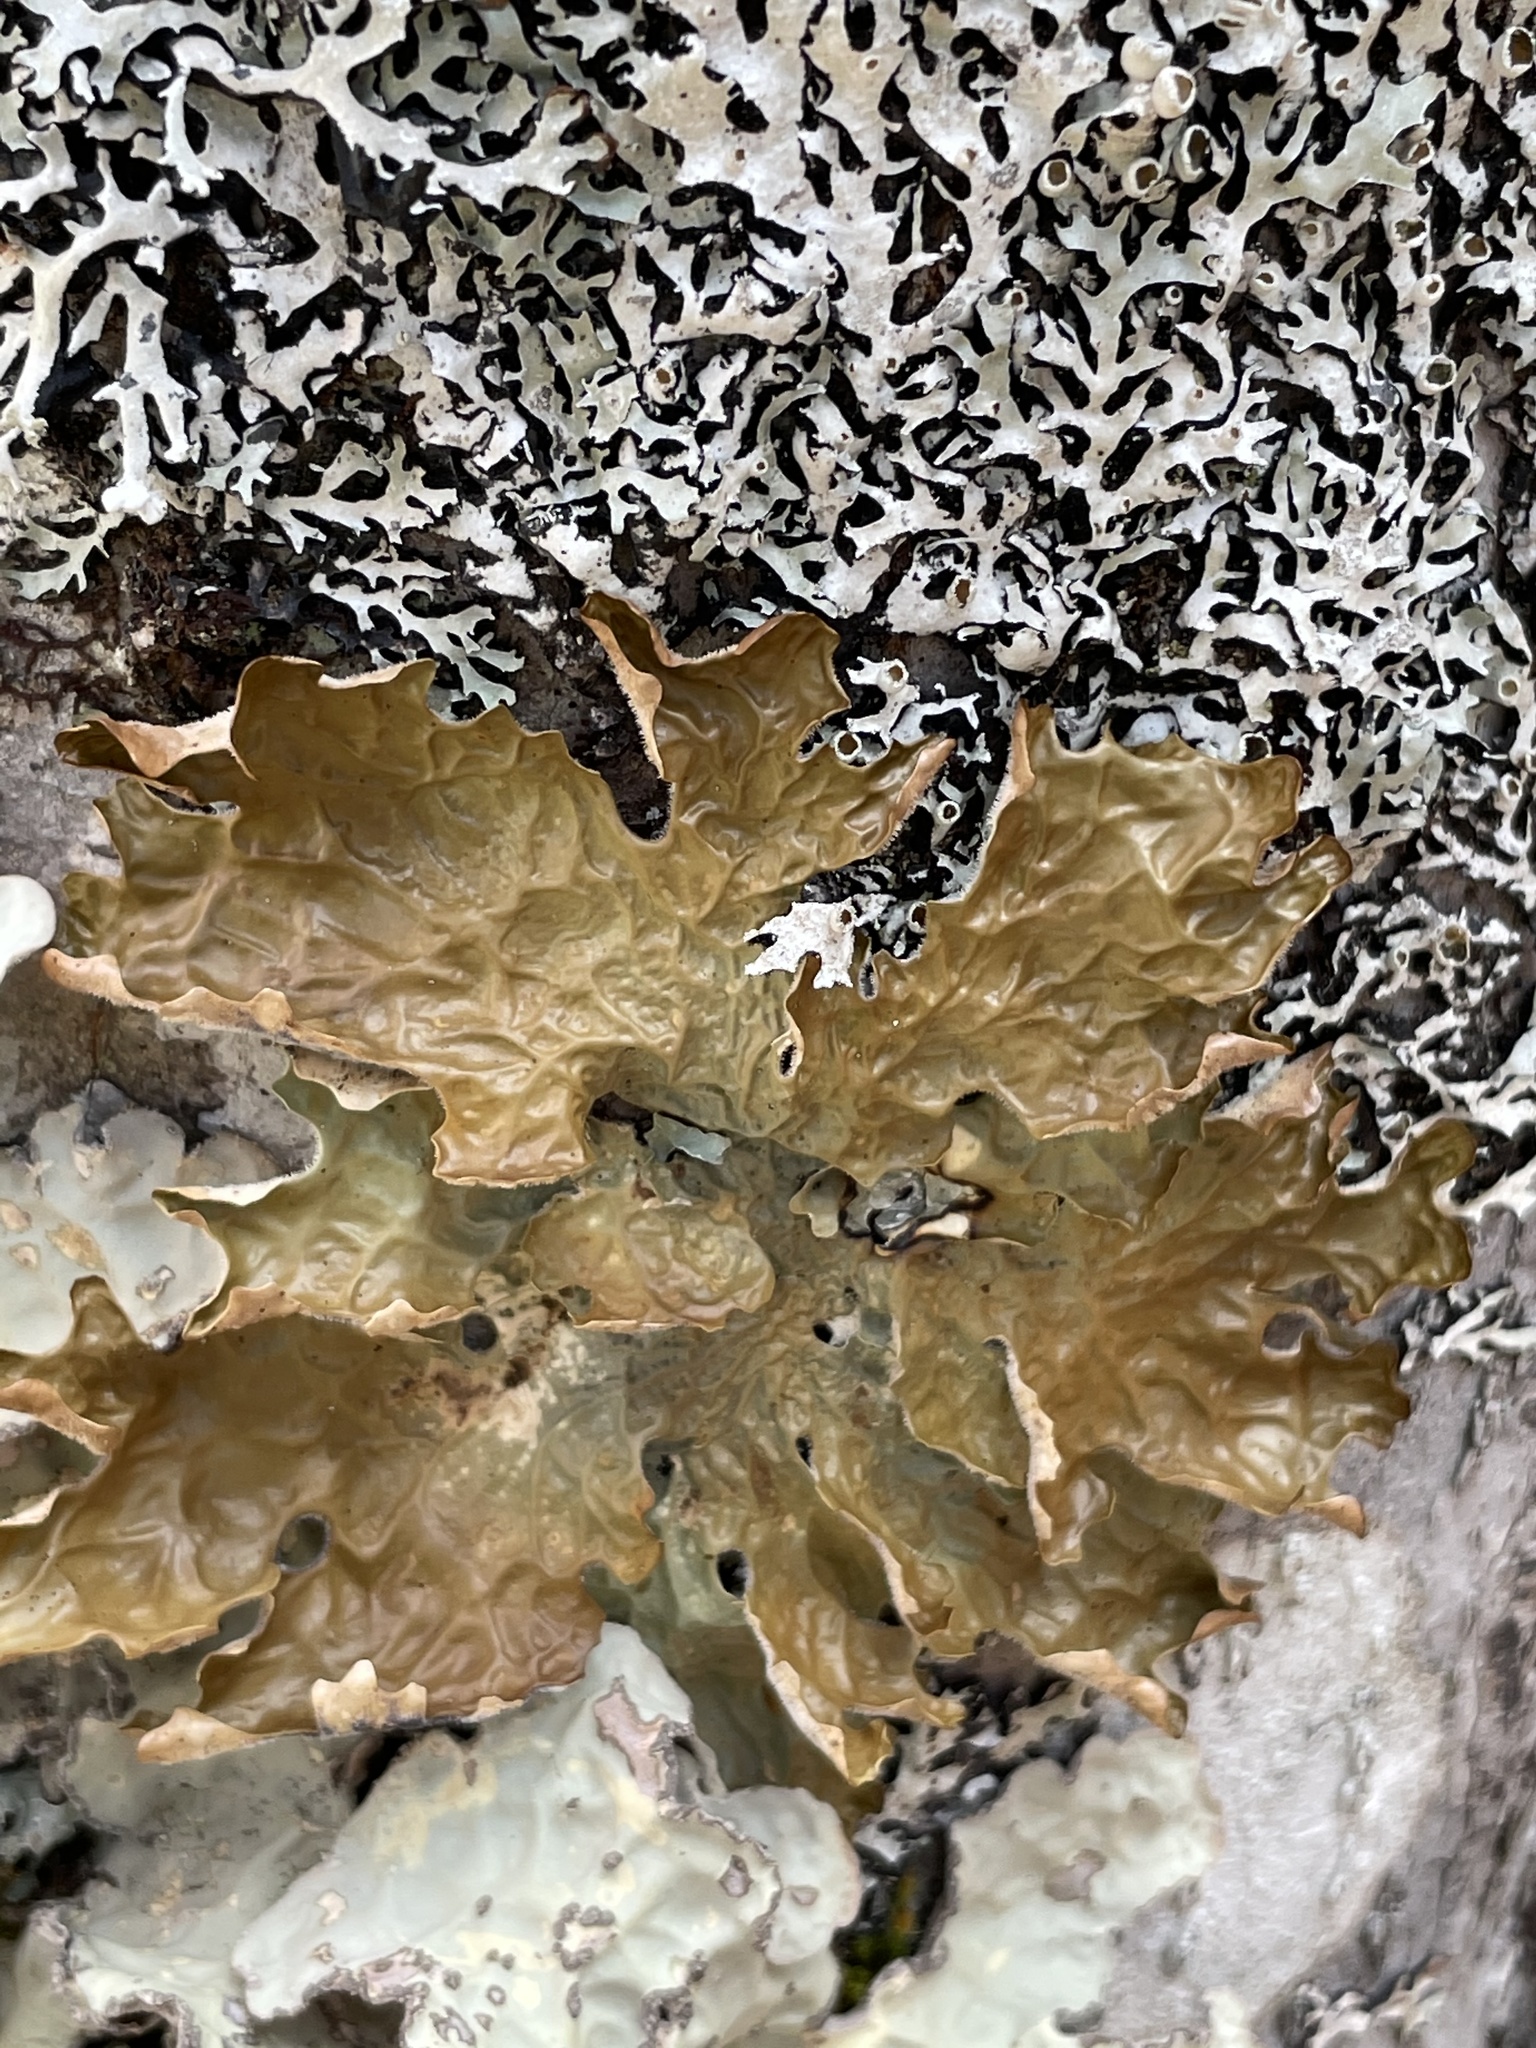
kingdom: Fungi
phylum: Ascomycota
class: Lecanoromycetes
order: Peltigerales
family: Lobariaceae
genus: Lobaria
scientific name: Lobaria pulmonaria
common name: Lungwort
